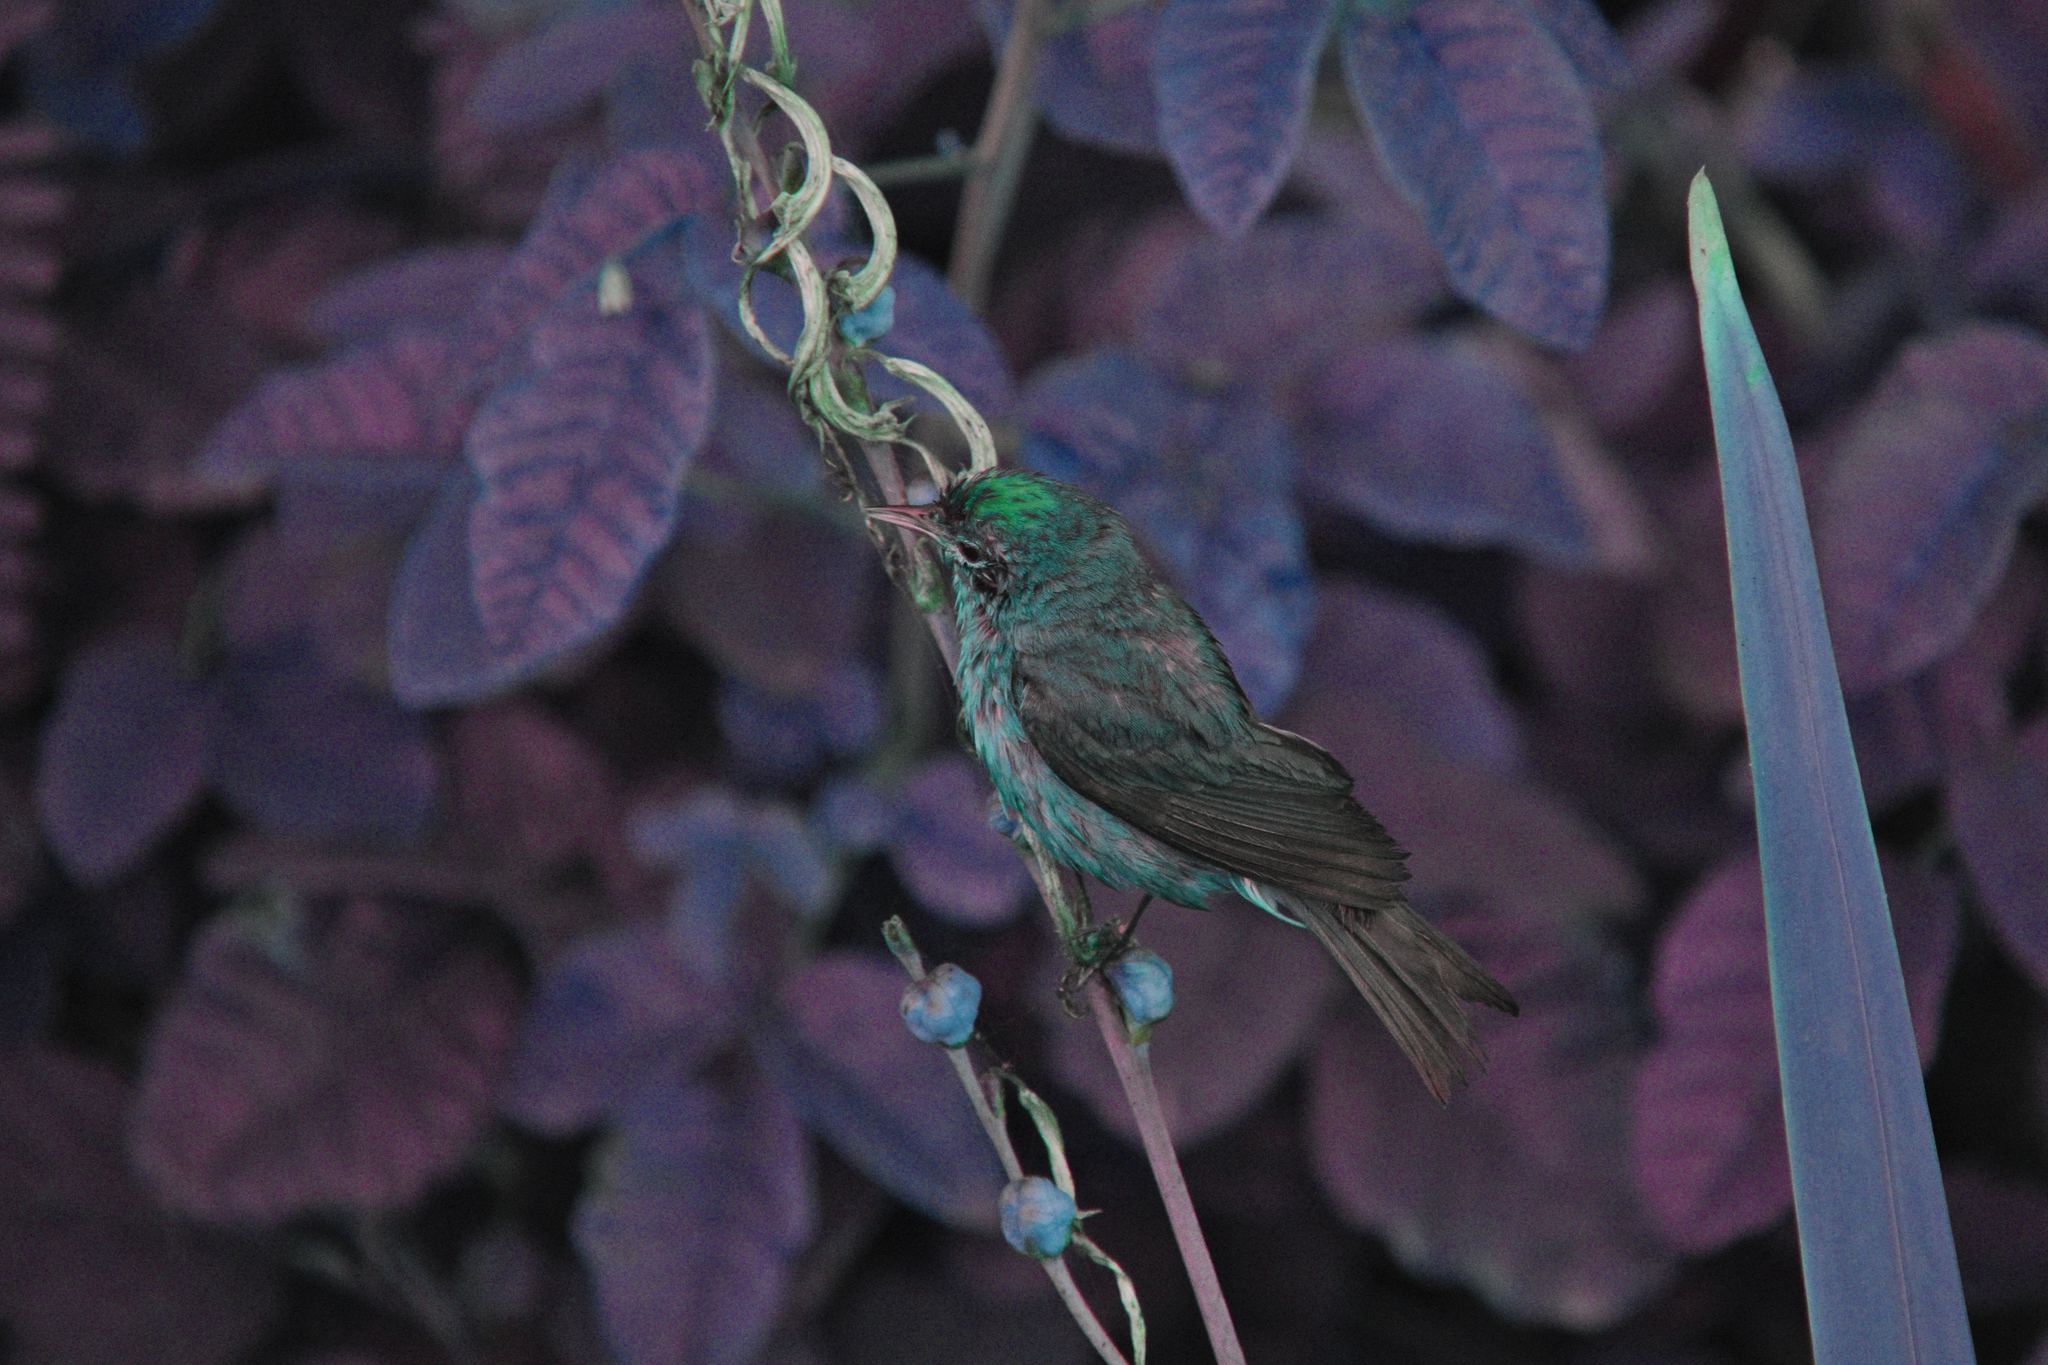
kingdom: Animalia
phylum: Chordata
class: Aves
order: Passeriformes
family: Parulidae
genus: Leiothlypis
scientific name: Leiothlypis celata
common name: Orange-crowned warbler
